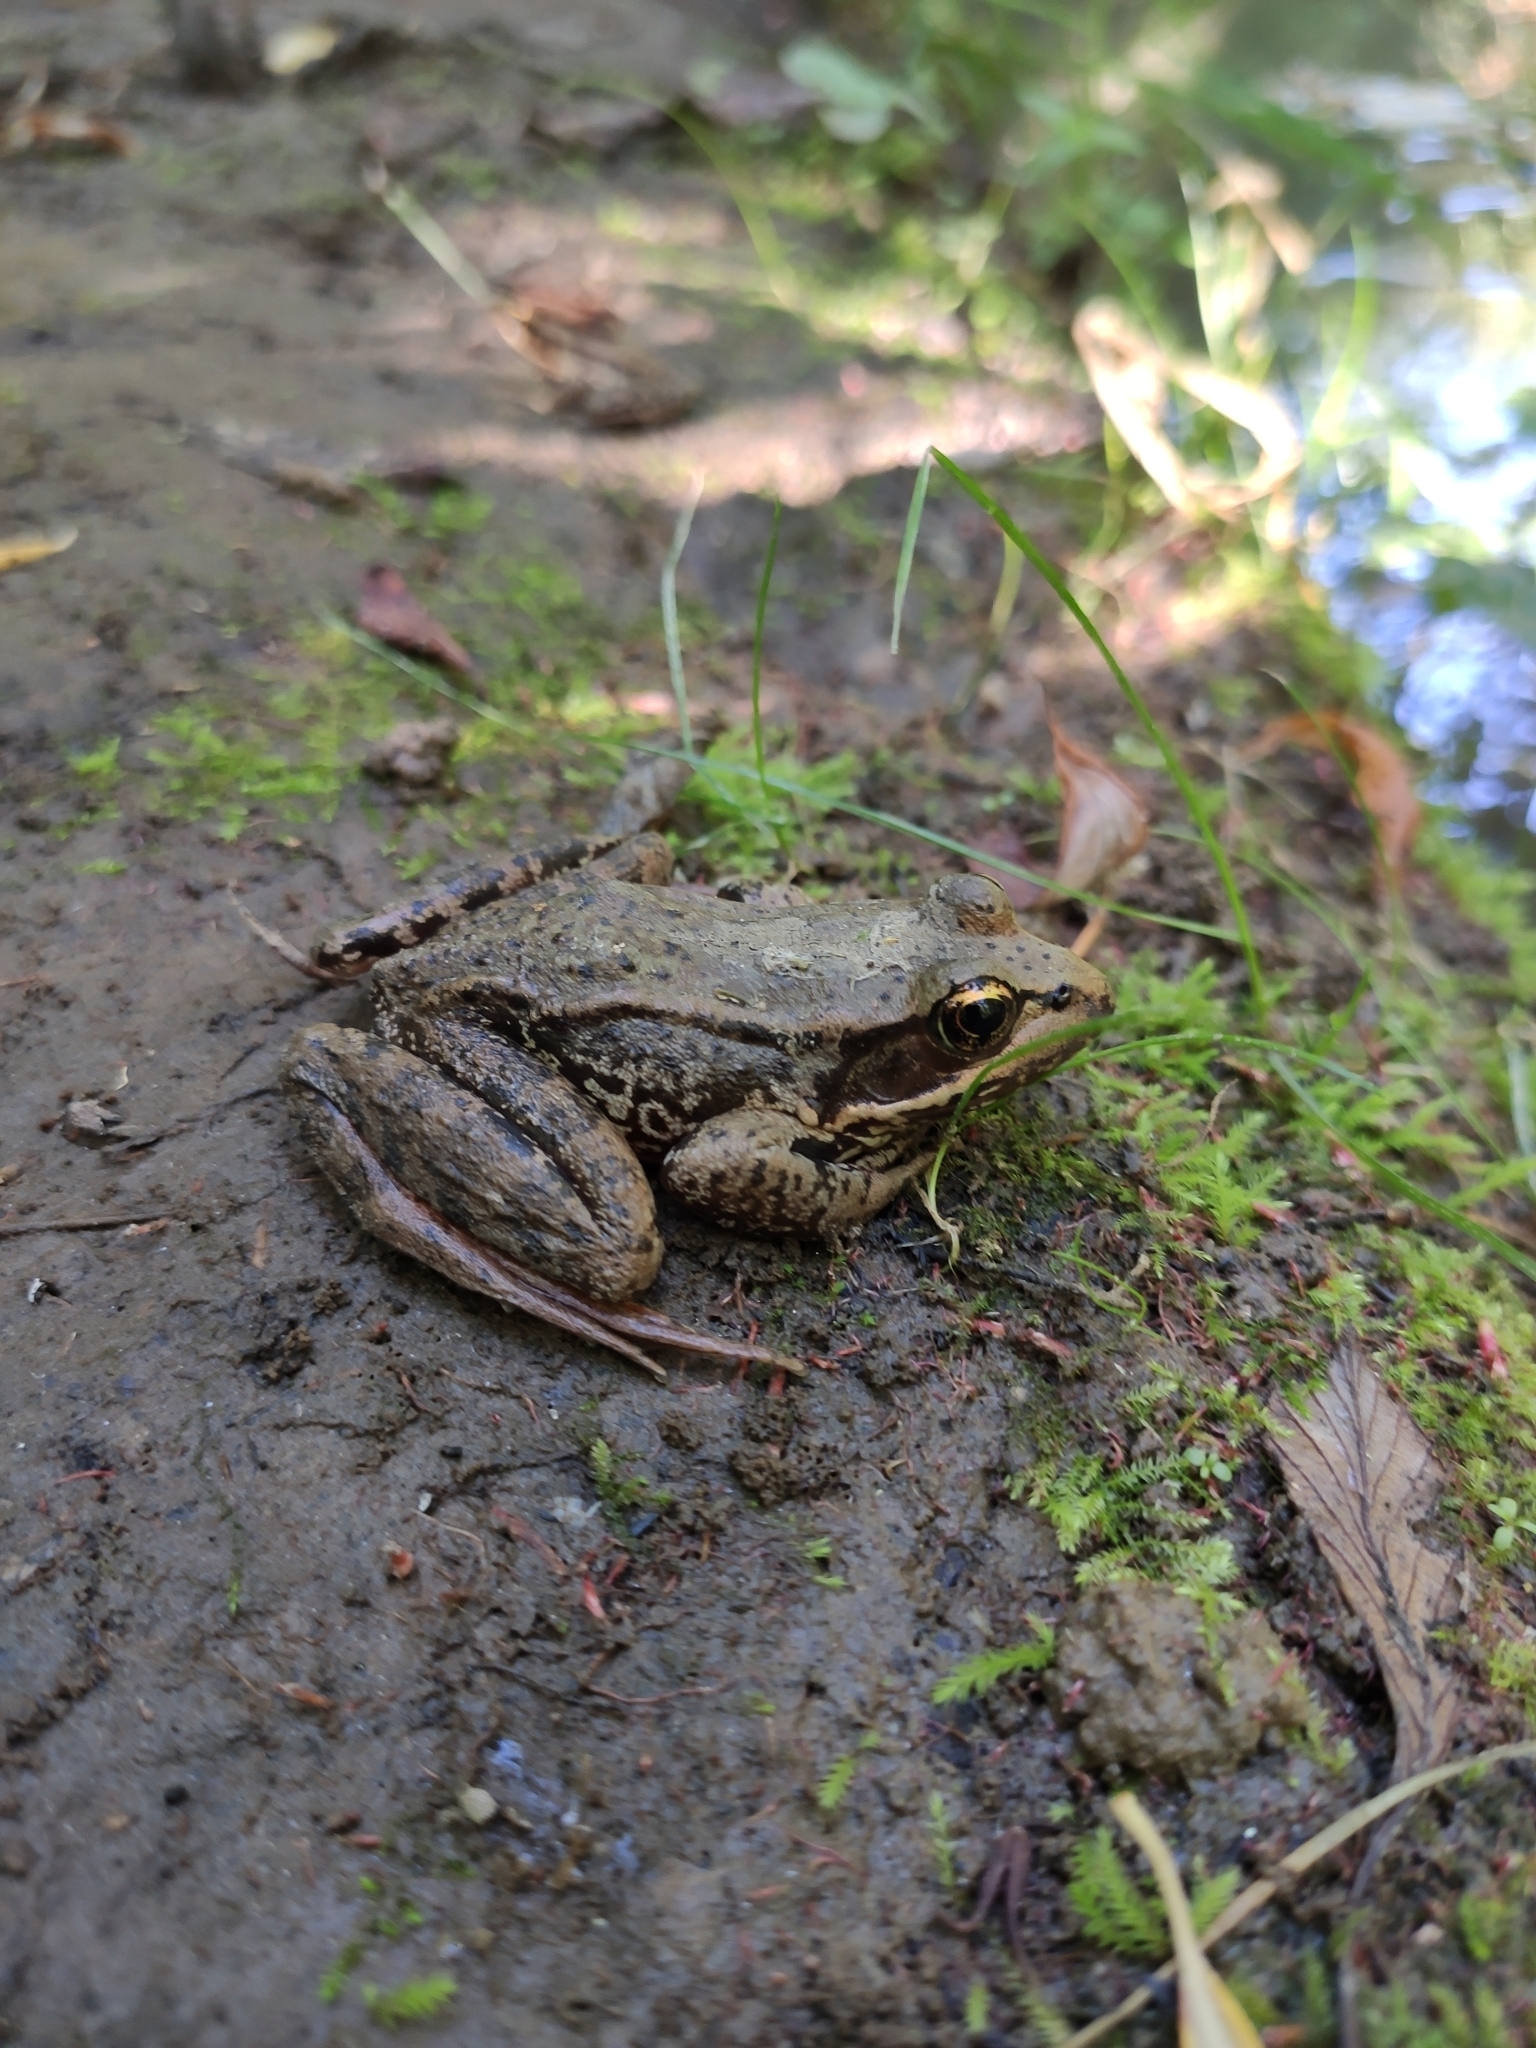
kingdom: Animalia
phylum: Chordata
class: Amphibia
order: Anura
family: Ranidae
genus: Rana
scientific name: Rana aurora
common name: Red-legged frog
